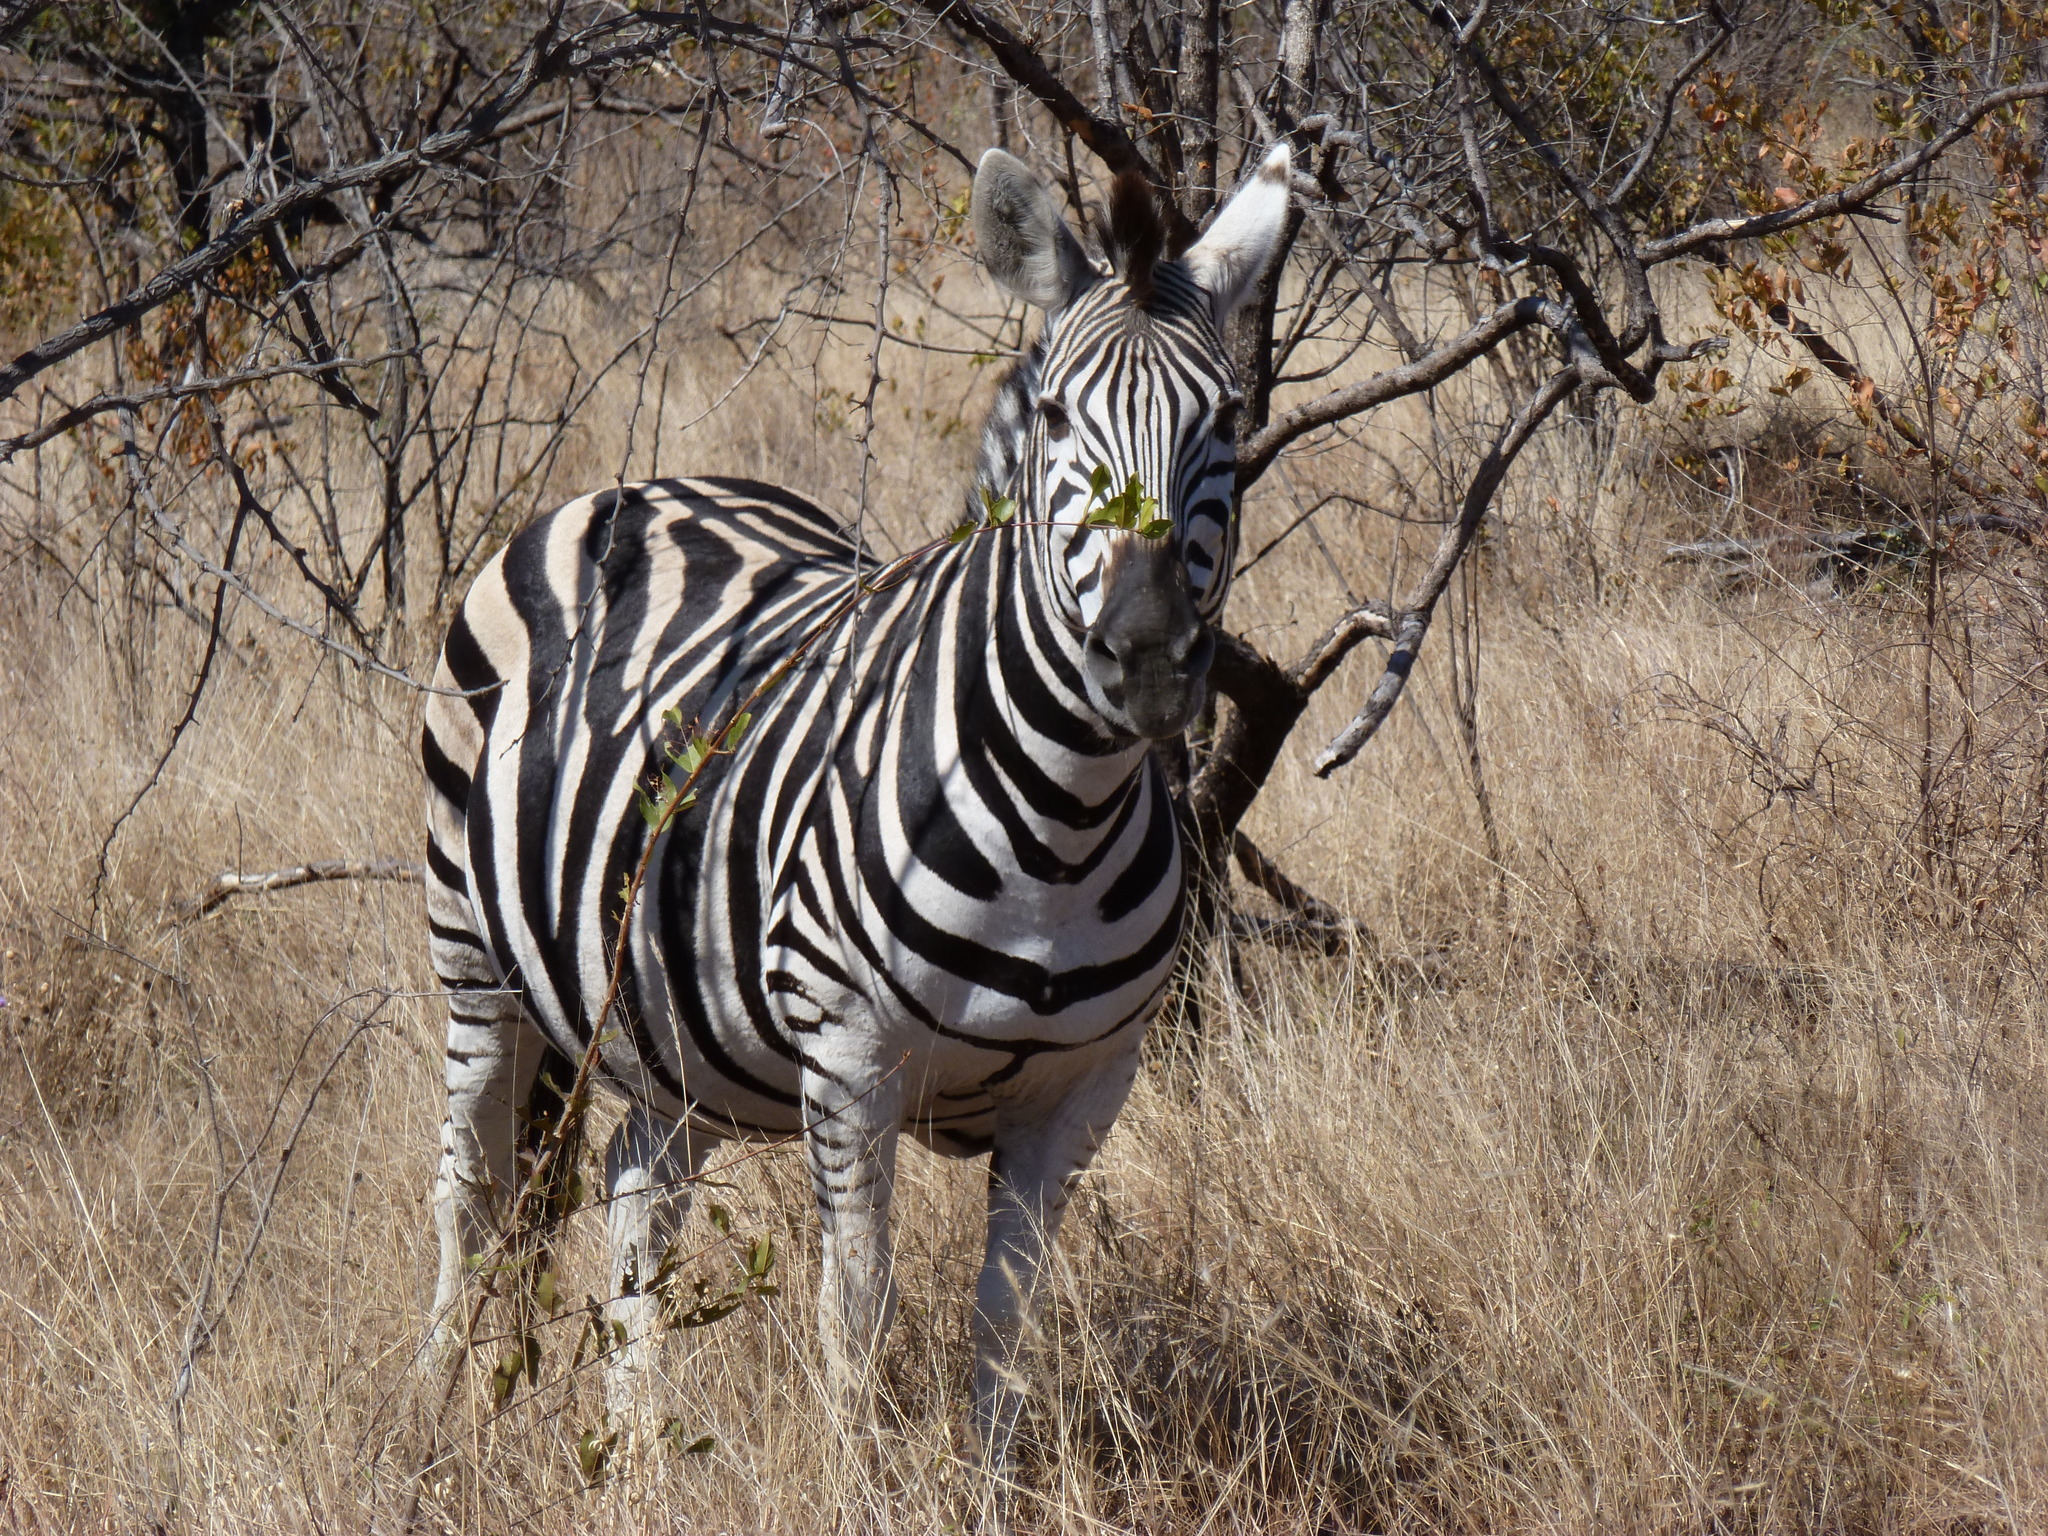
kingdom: Animalia
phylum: Chordata
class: Mammalia
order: Perissodactyla
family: Equidae
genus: Equus
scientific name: Equus quagga
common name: Plains zebra
